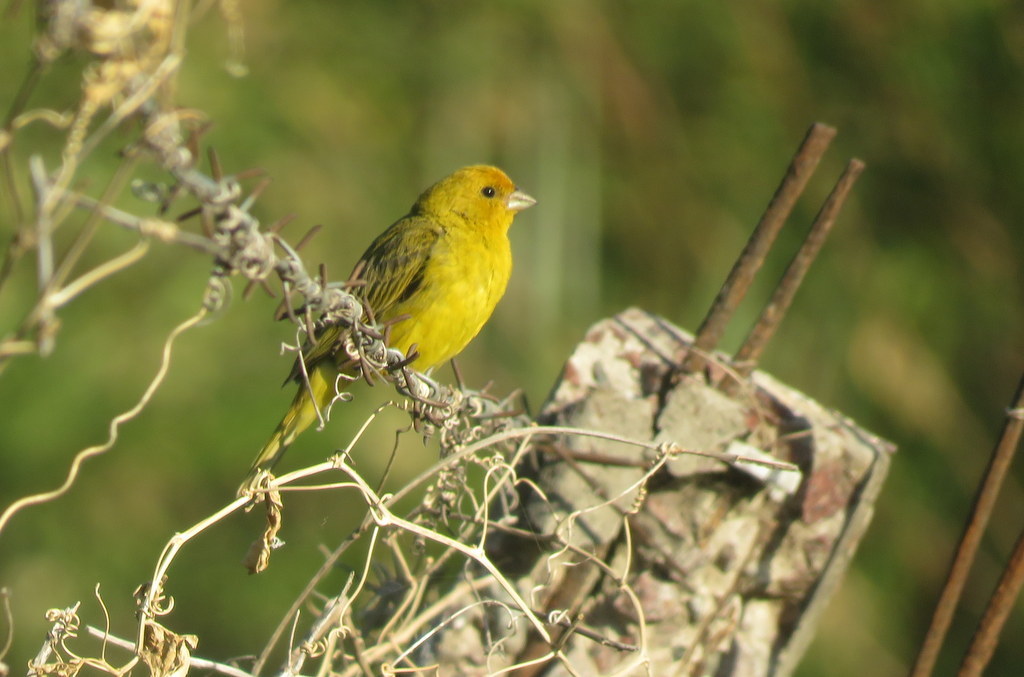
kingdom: Animalia
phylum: Chordata
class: Aves
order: Passeriformes
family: Thraupidae
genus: Sicalis
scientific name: Sicalis flaveola
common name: Saffron finch
